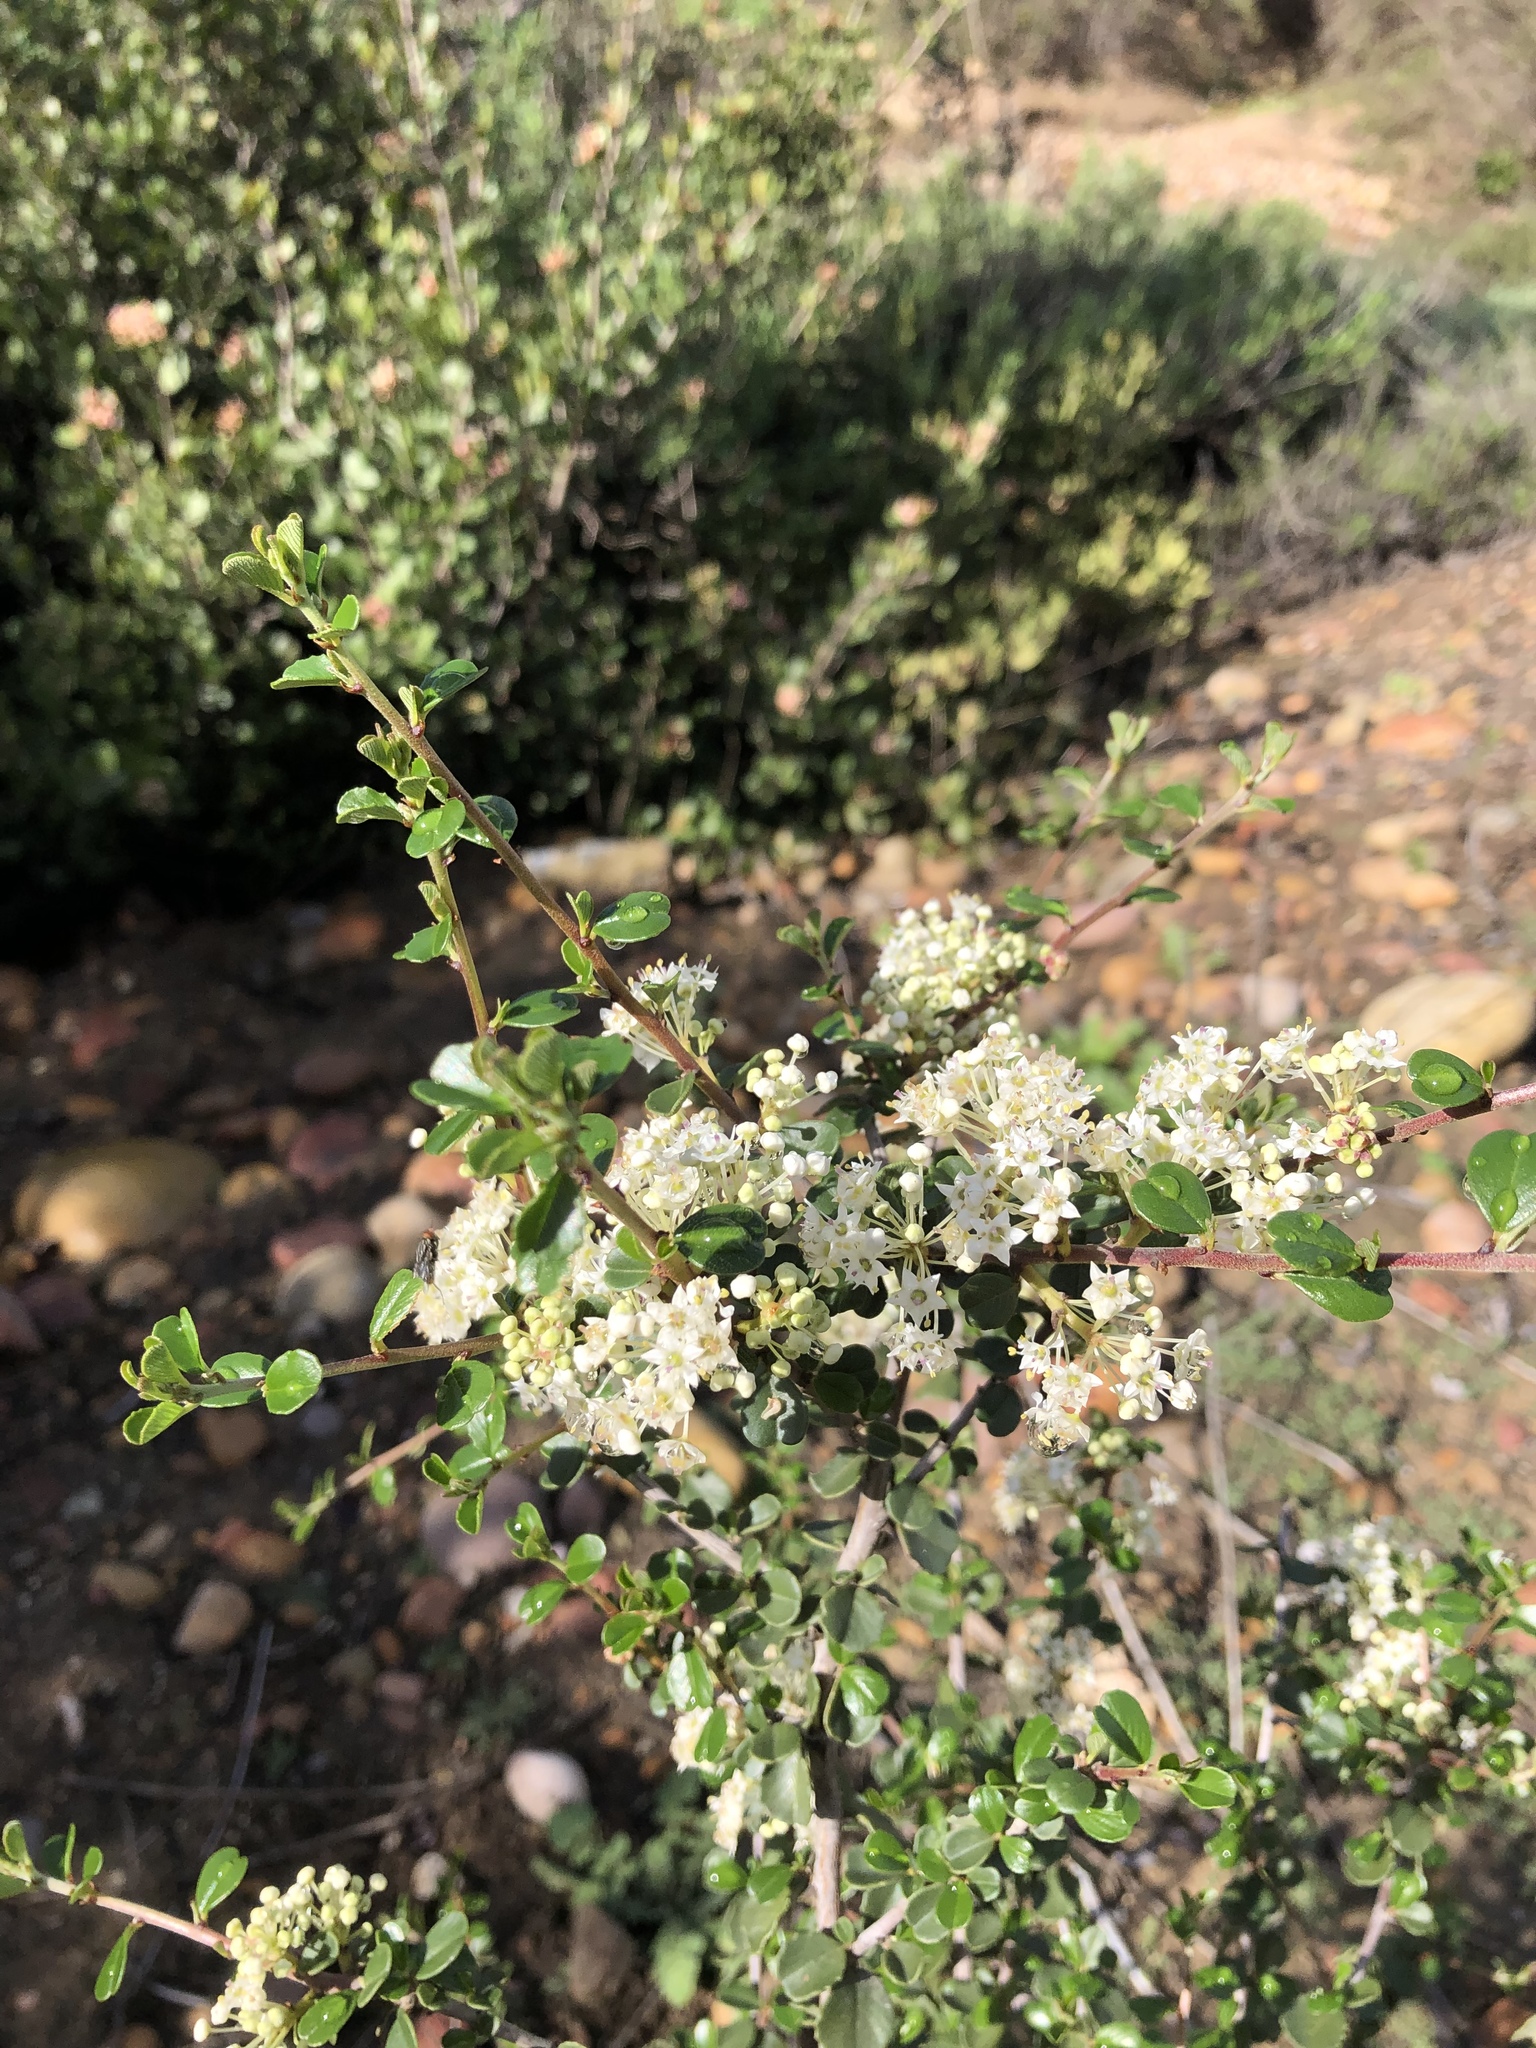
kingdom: Plantae
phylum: Tracheophyta
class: Magnoliopsida
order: Rosales
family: Rhamnaceae
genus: Ceanothus
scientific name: Ceanothus verrucosus
